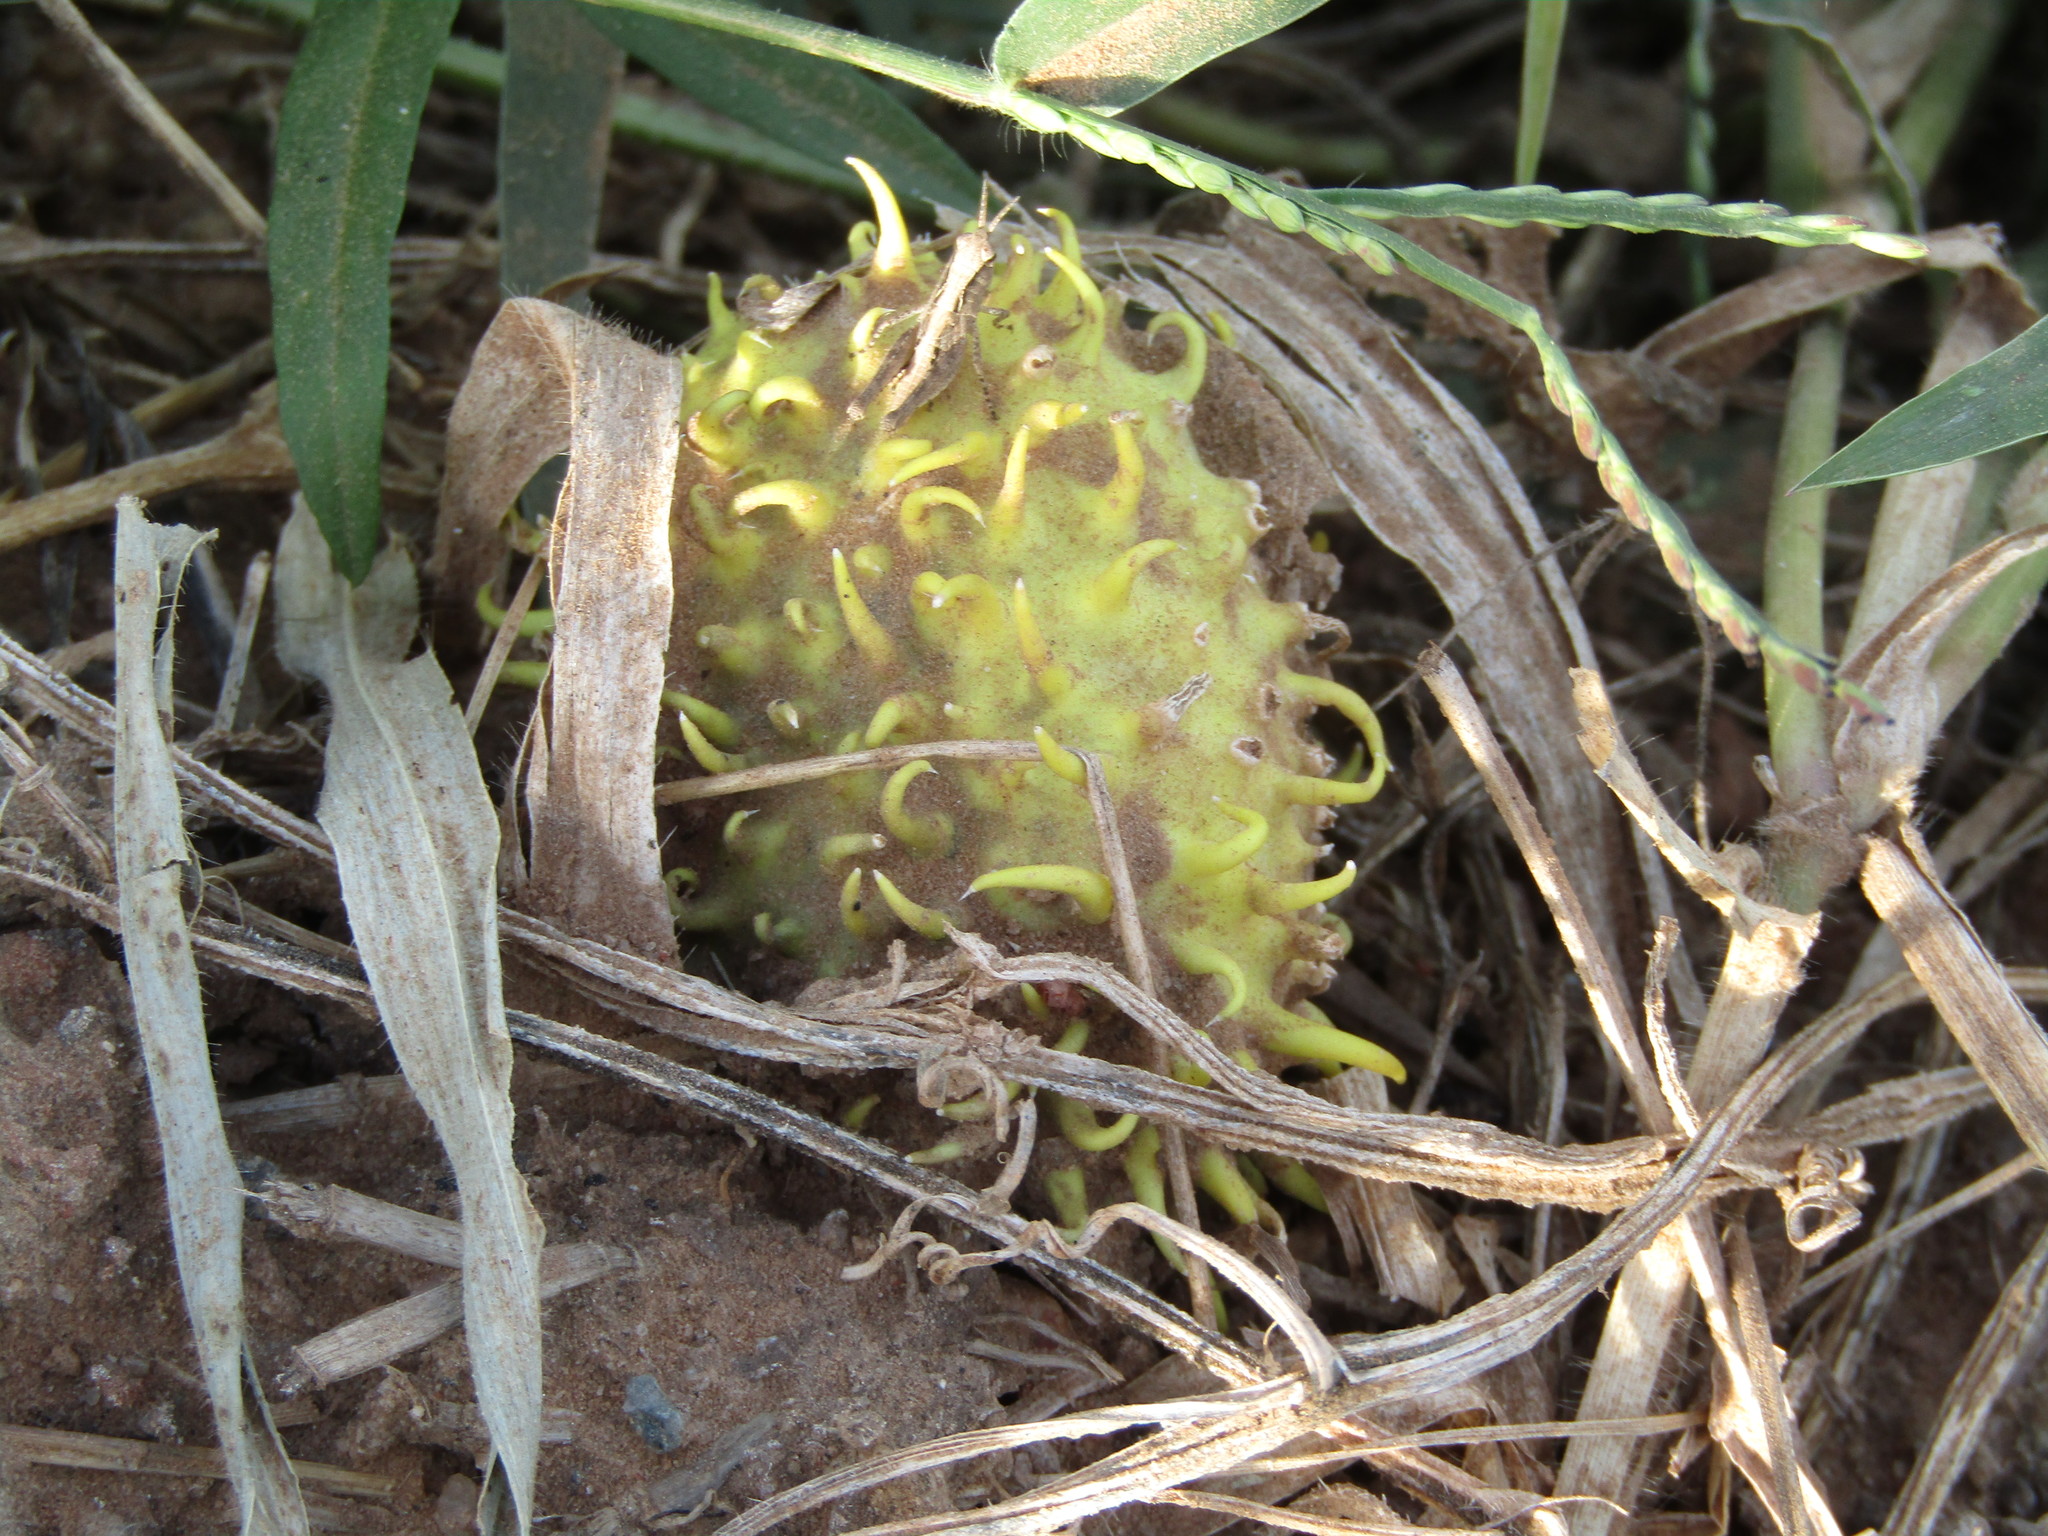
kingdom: Plantae
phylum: Tracheophyta
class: Magnoliopsida
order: Cucurbitales
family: Cucurbitaceae
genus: Cucumis
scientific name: Cucumis anguria
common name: West indian gherkin
